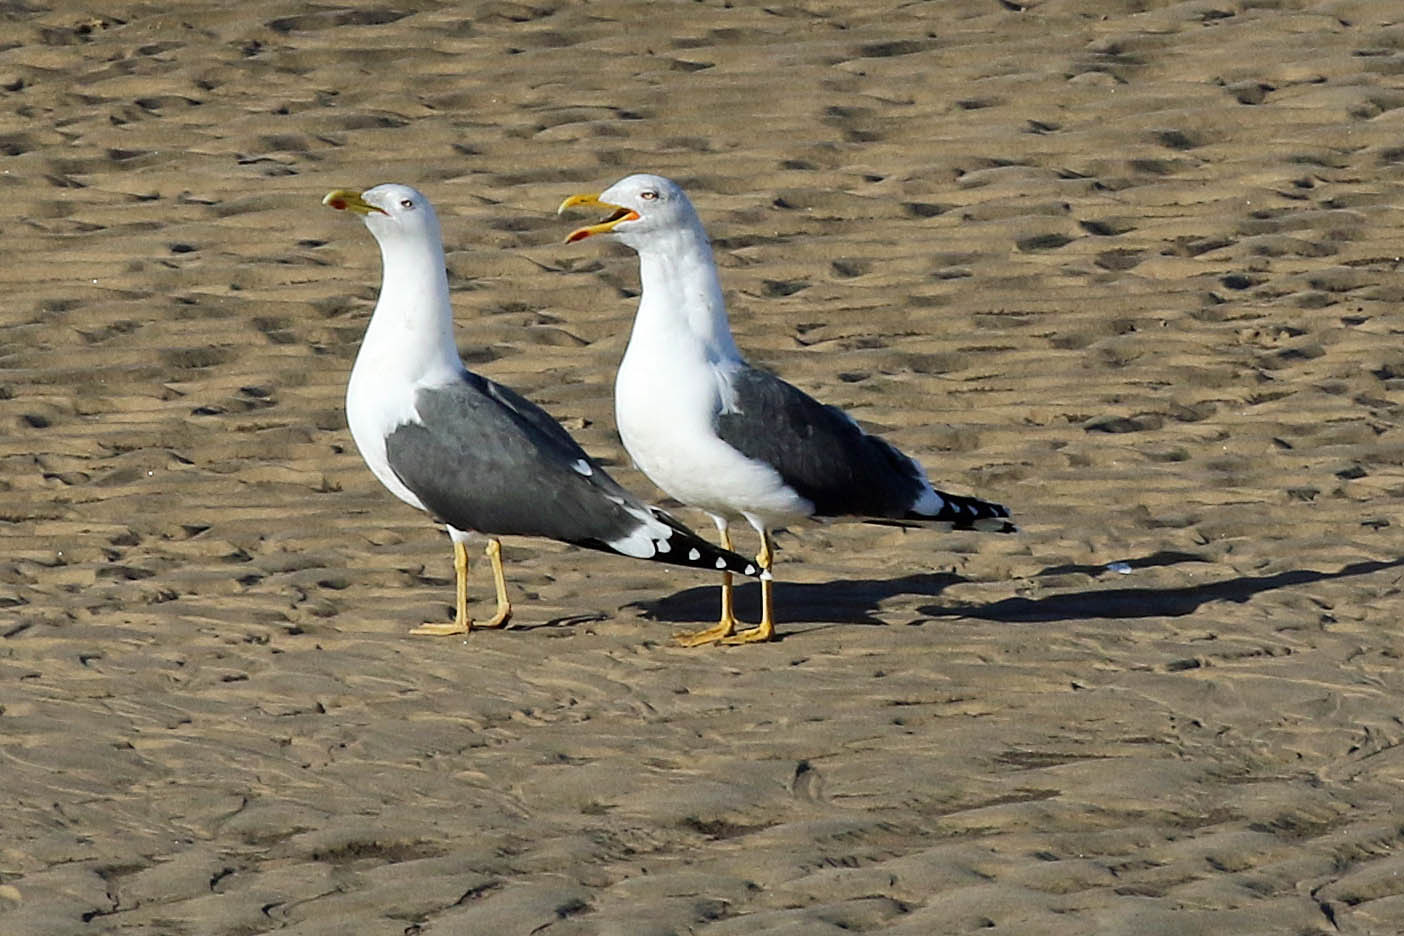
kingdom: Animalia
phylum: Chordata
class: Aves
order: Charadriiformes
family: Laridae
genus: Larus
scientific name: Larus fuscus
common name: Lesser black-backed gull
